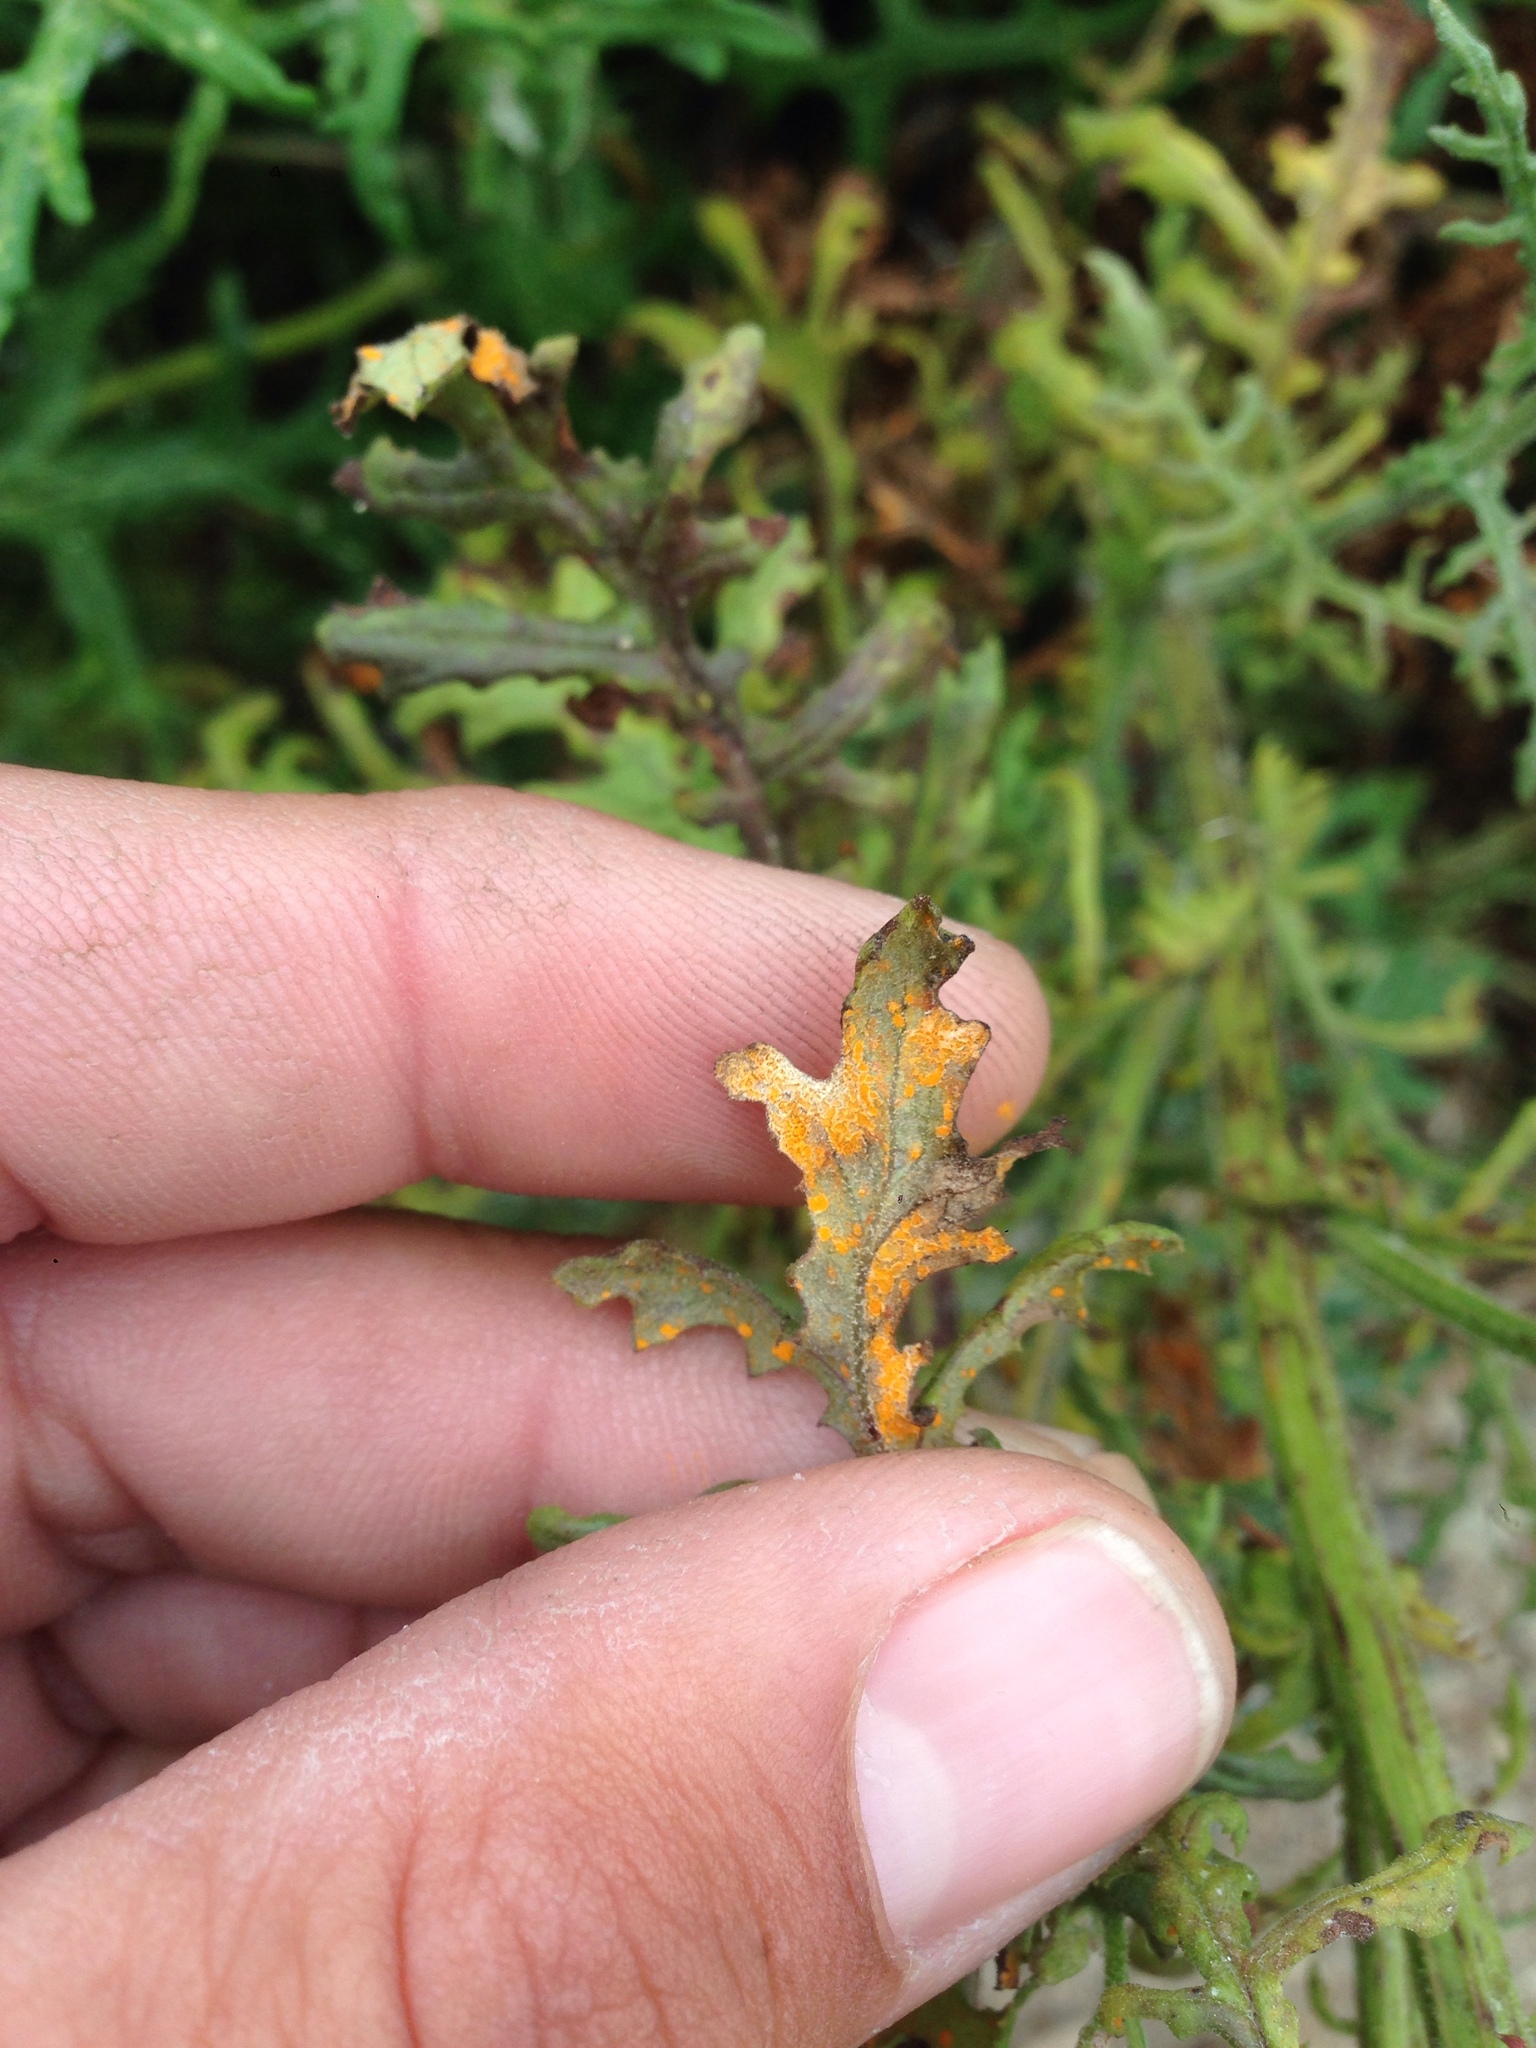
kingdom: Fungi
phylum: Basidiomycota
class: Pucciniomycetes
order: Pucciniales
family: Pucciniaceae
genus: Puccinia
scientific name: Puccinia lagenophorae
